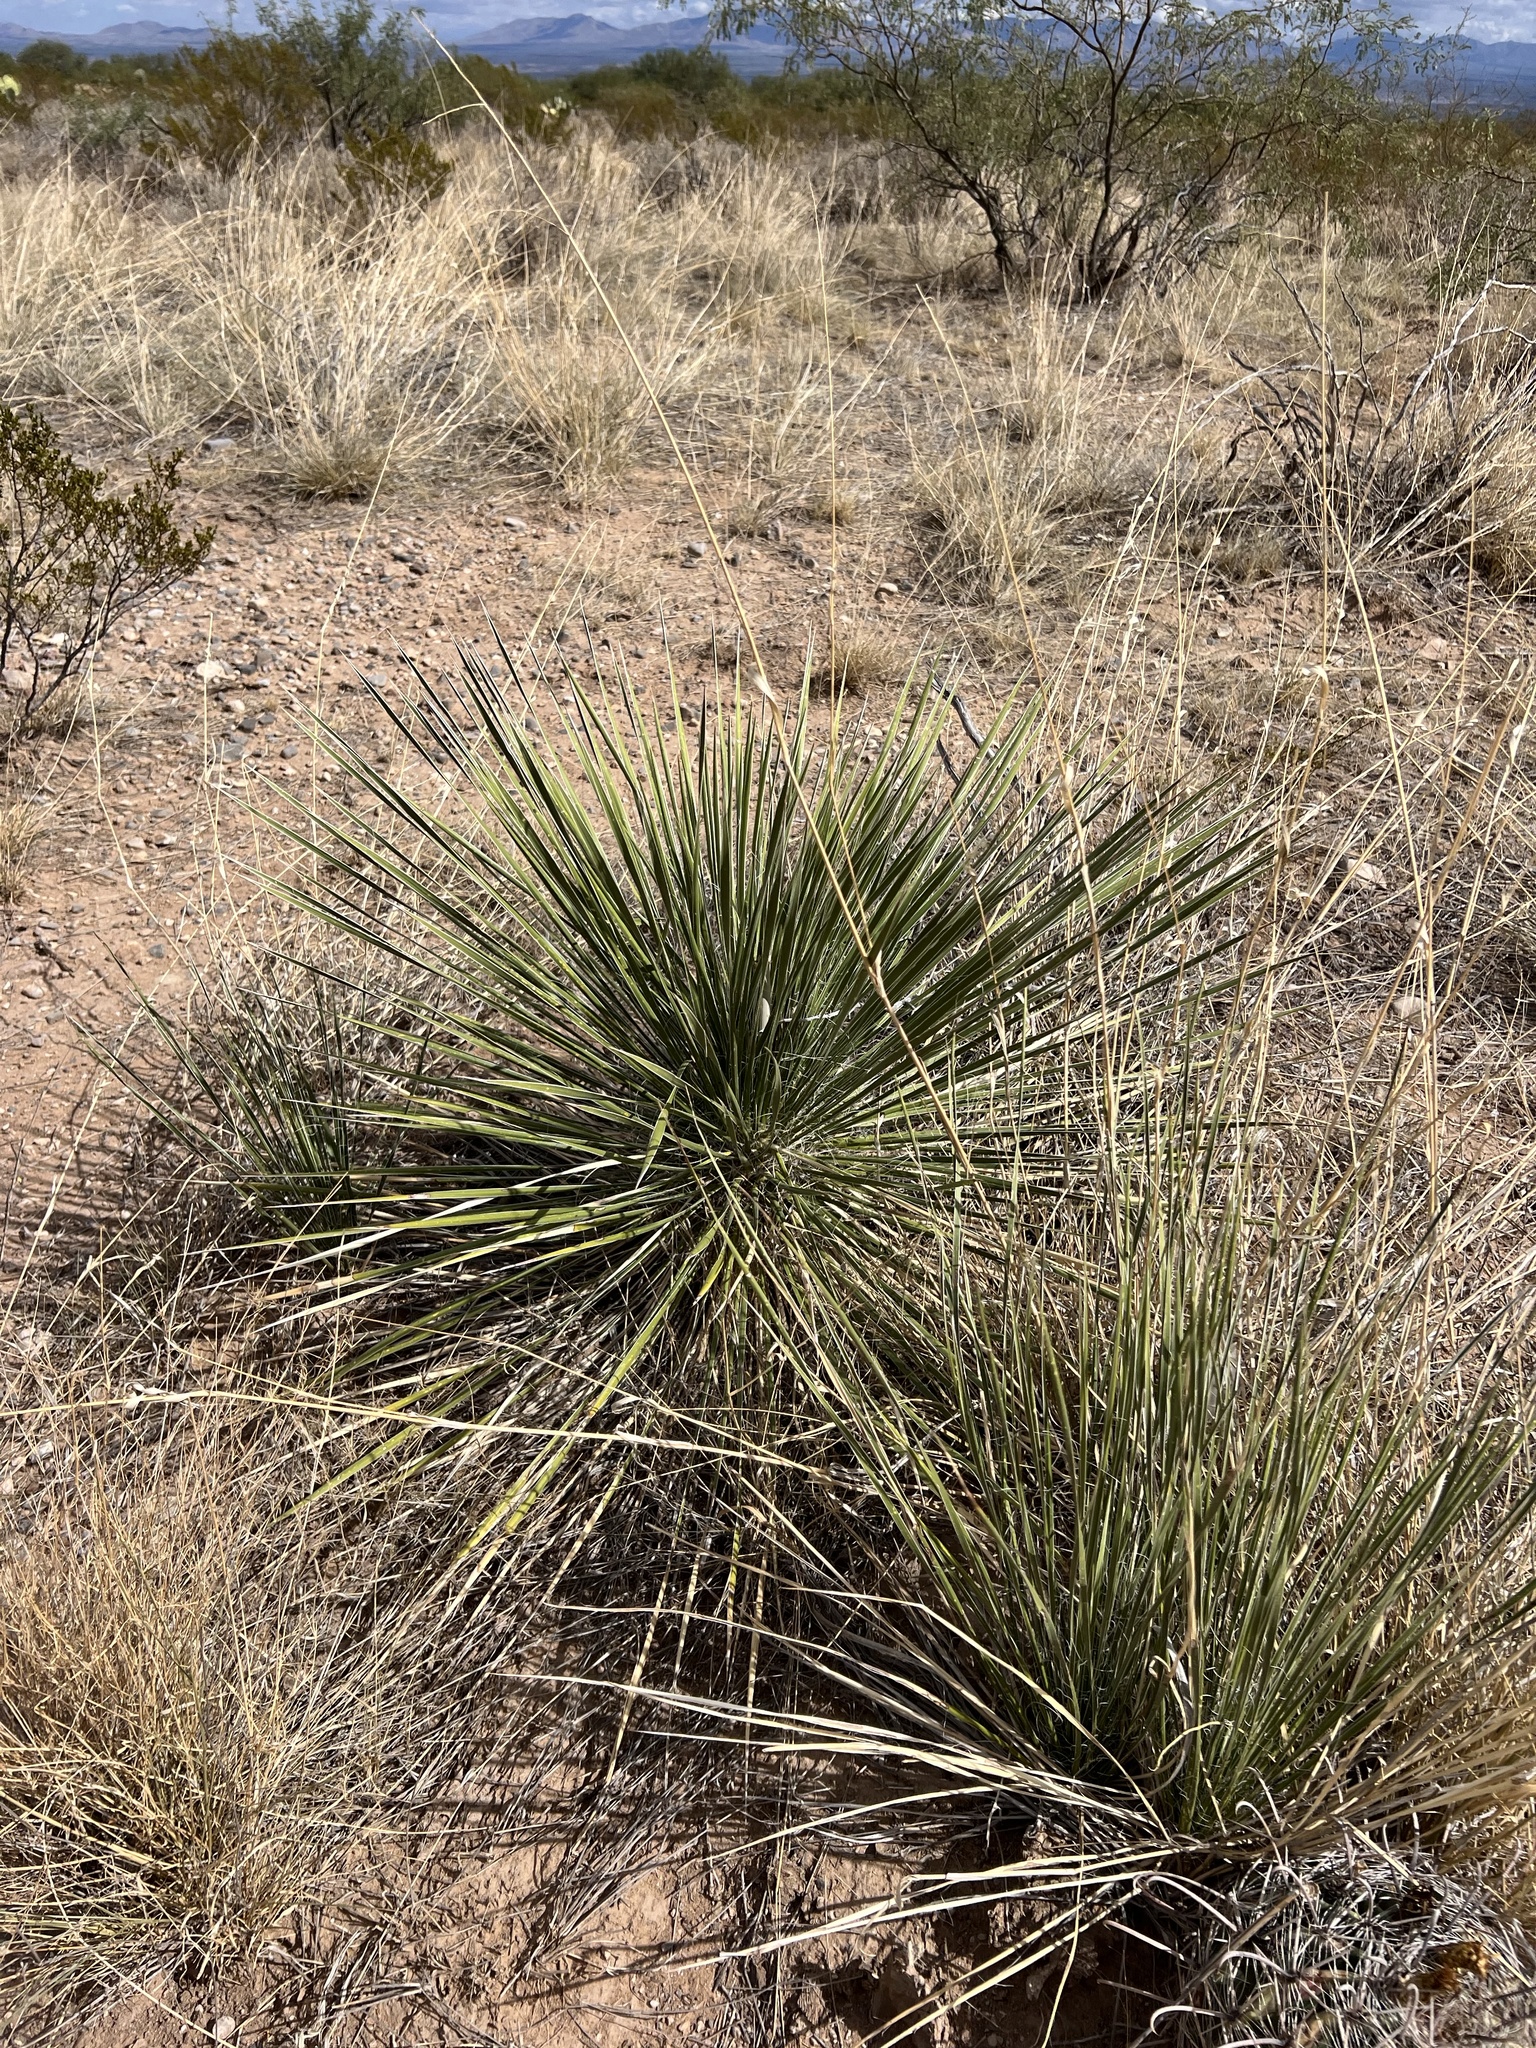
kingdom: Plantae
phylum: Tracheophyta
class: Liliopsida
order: Asparagales
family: Asparagaceae
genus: Yucca
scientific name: Yucca elata
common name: Palmella
